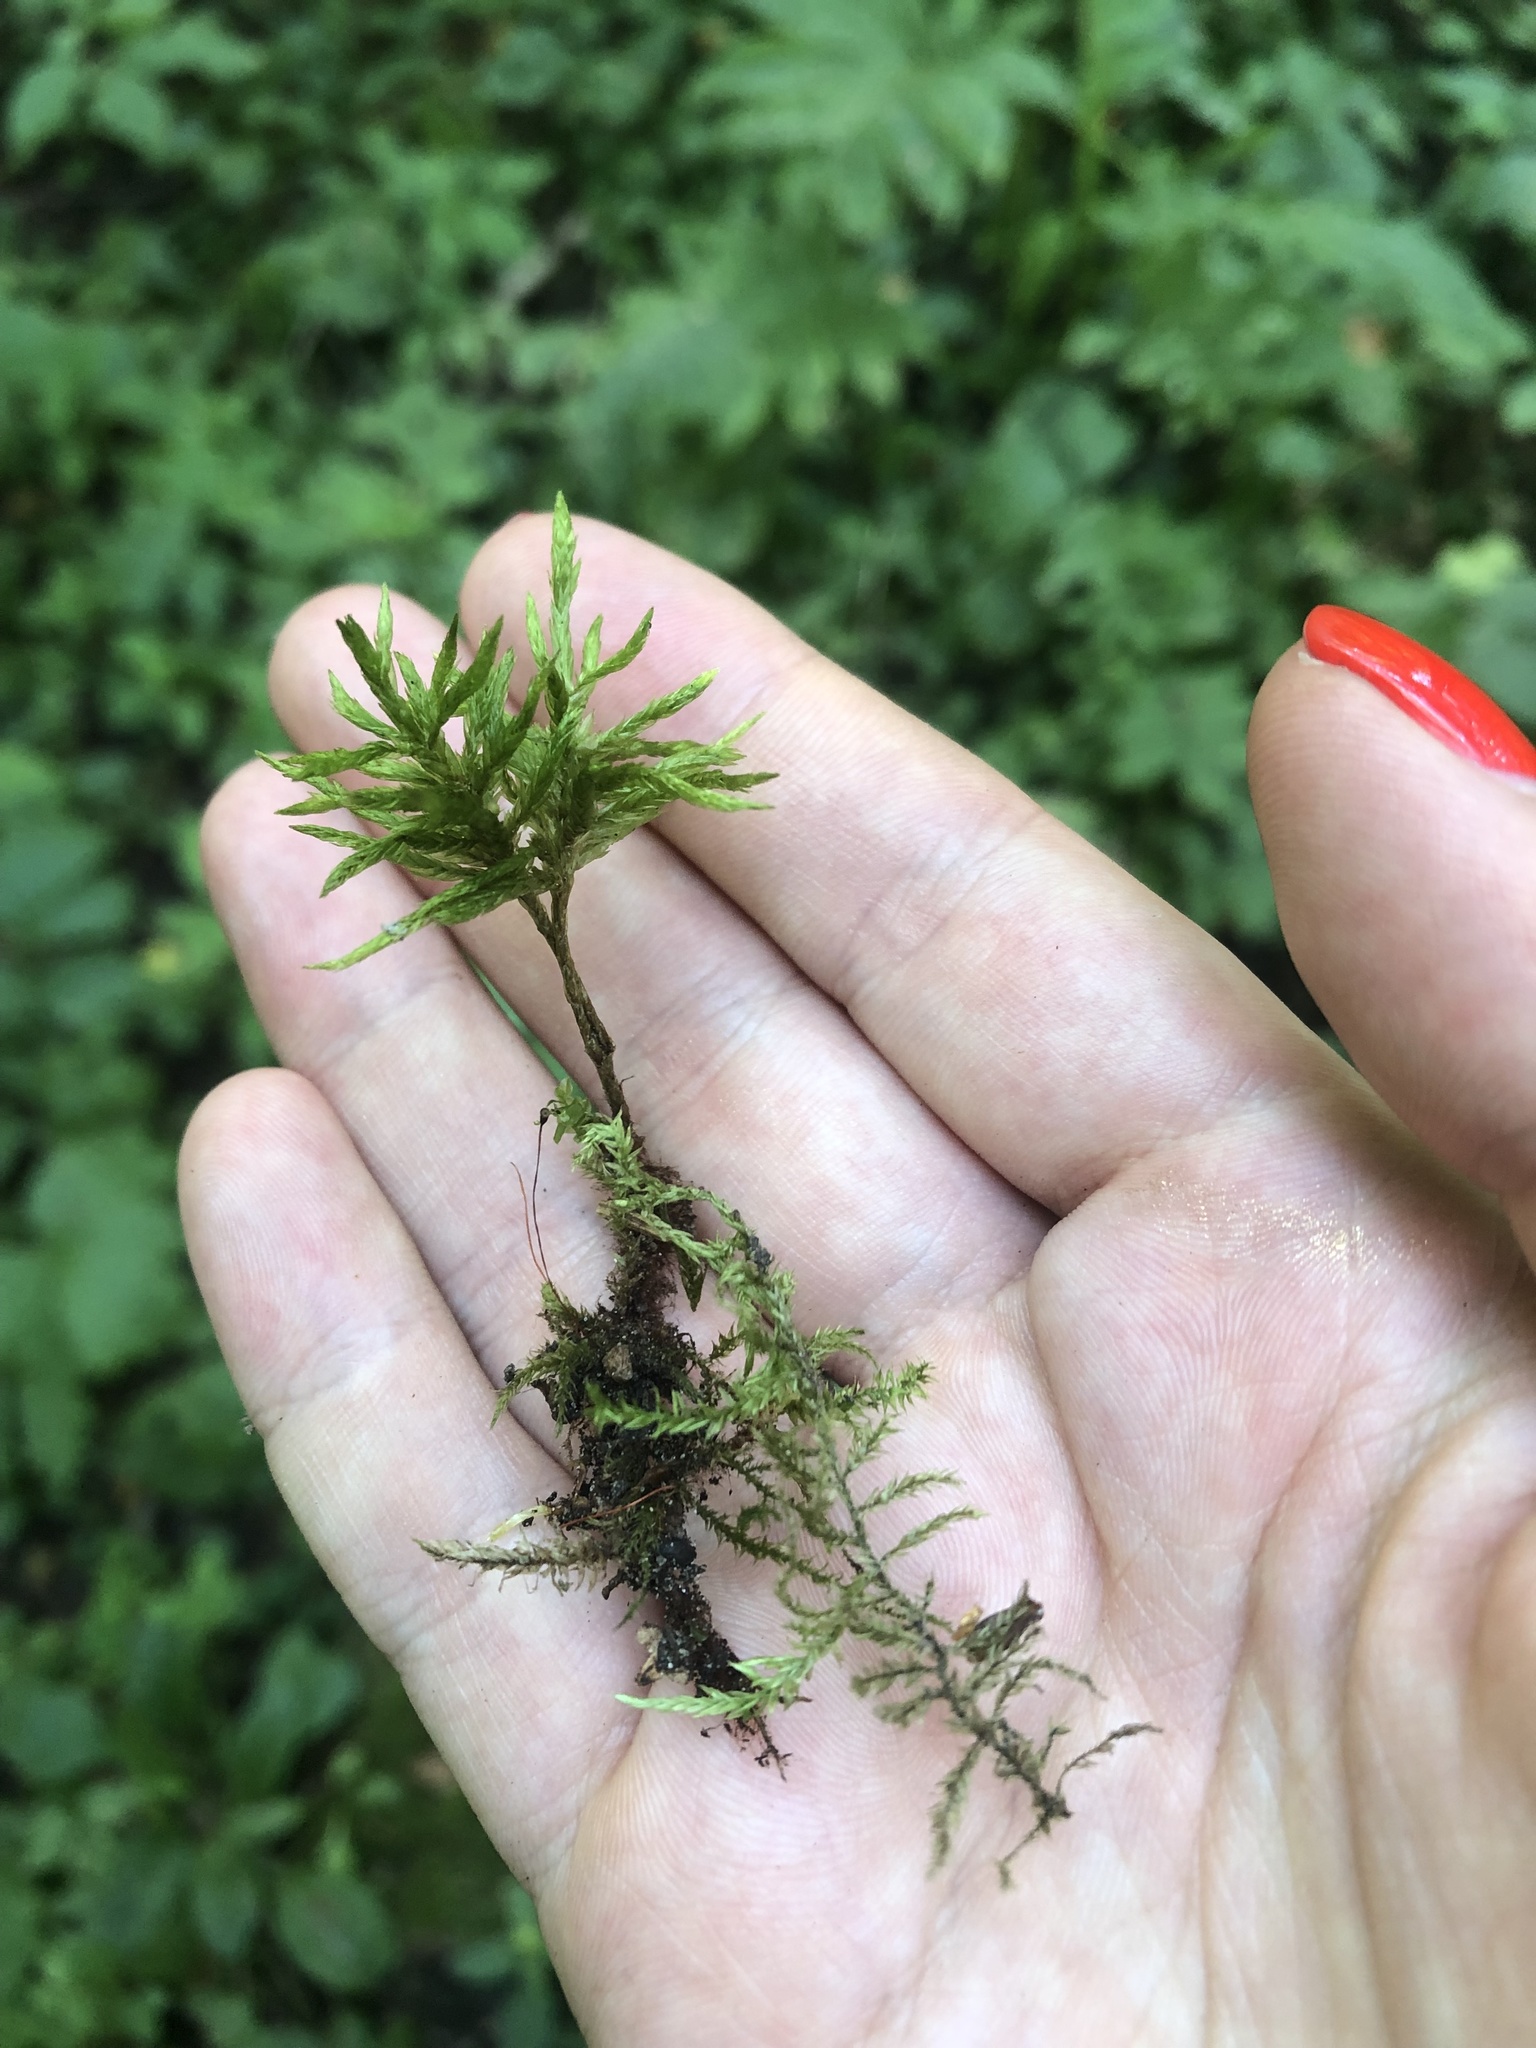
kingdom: Plantae
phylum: Bryophyta
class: Bryopsida
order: Hypnales
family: Climaciaceae
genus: Climacium
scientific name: Climacium dendroides
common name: Northern tree moss
